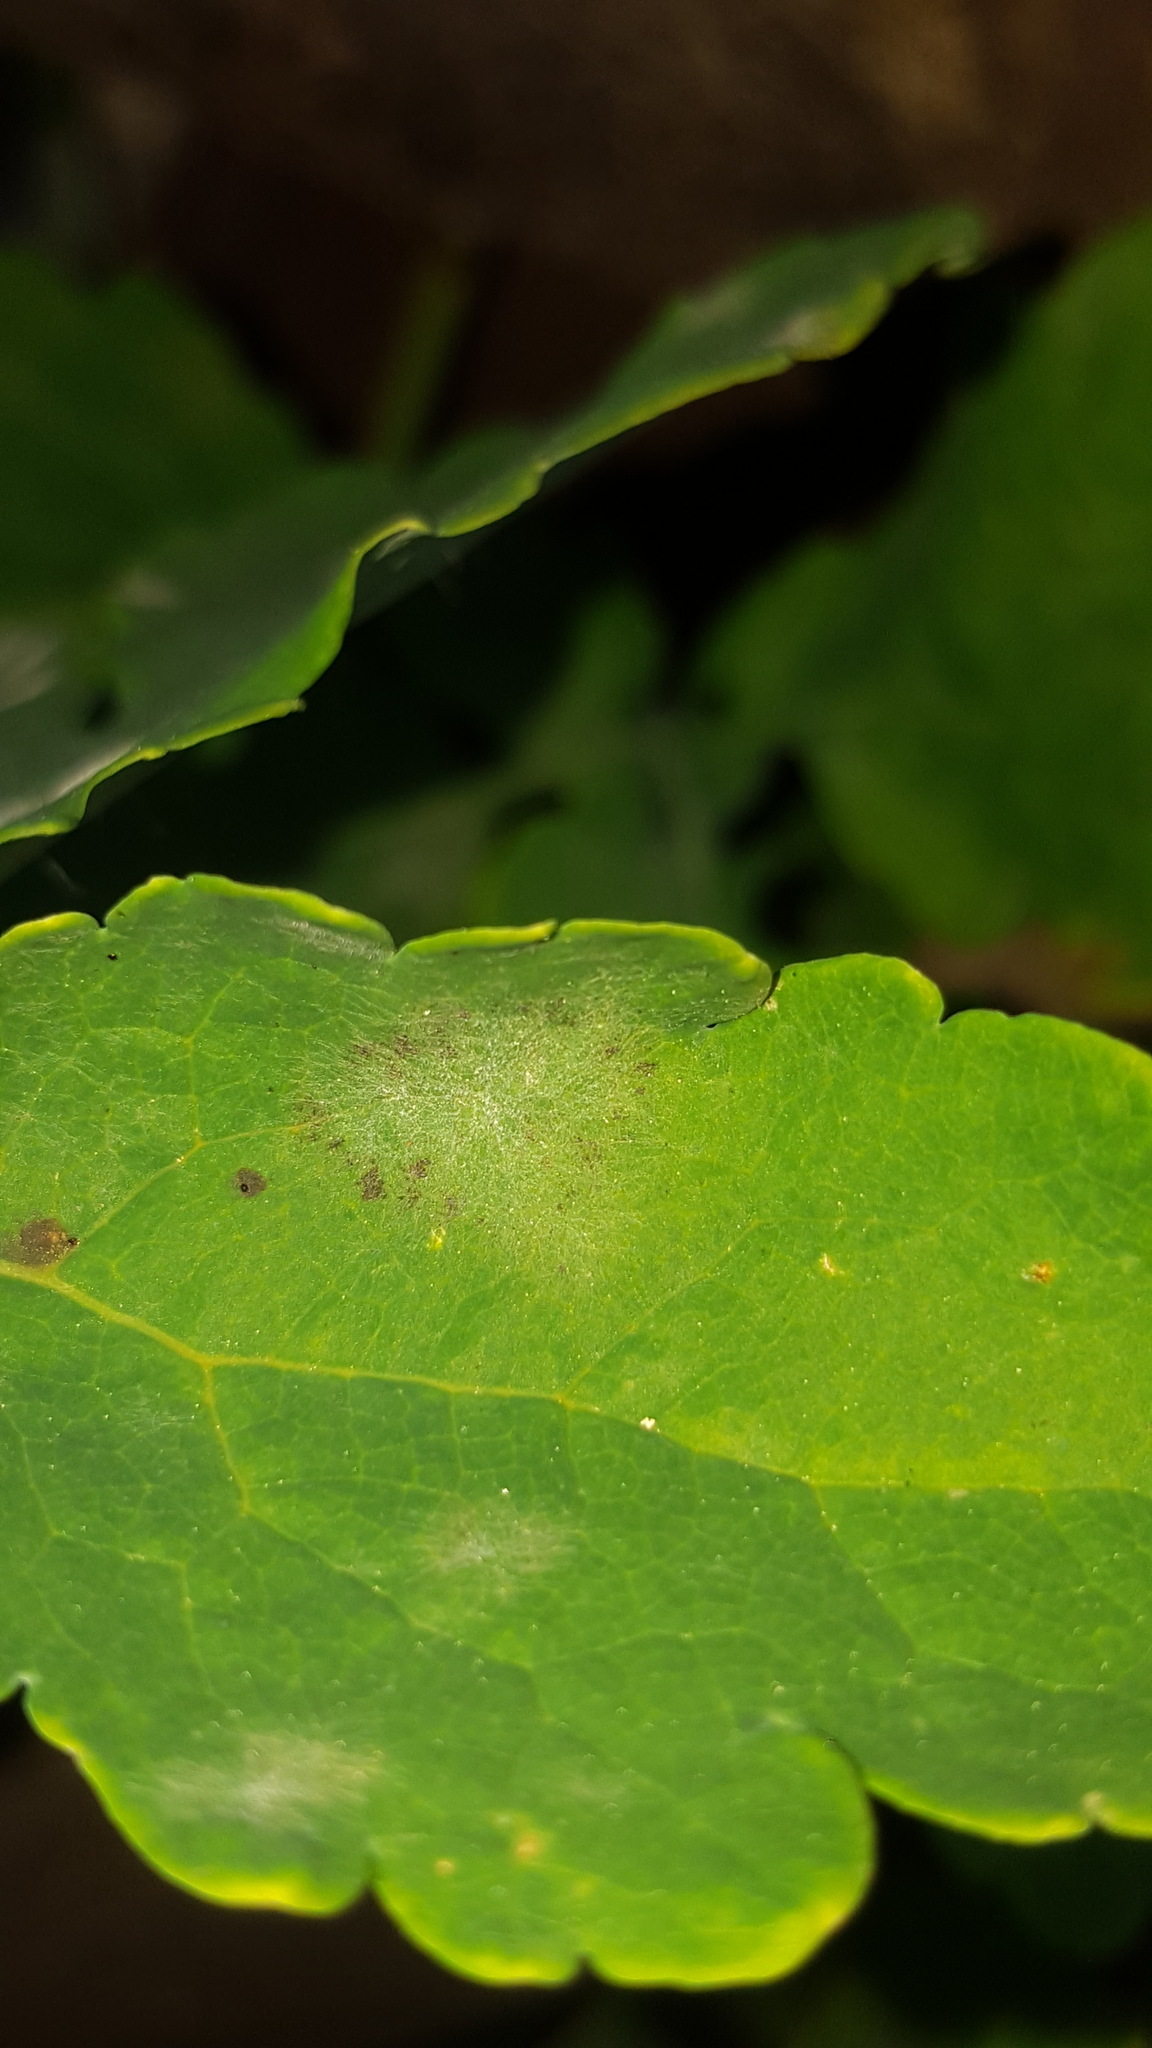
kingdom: Fungi
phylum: Ascomycota
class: Leotiomycetes
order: Helotiales
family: Erysiphaceae
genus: Erysiphe
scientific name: Erysiphe macleayae
